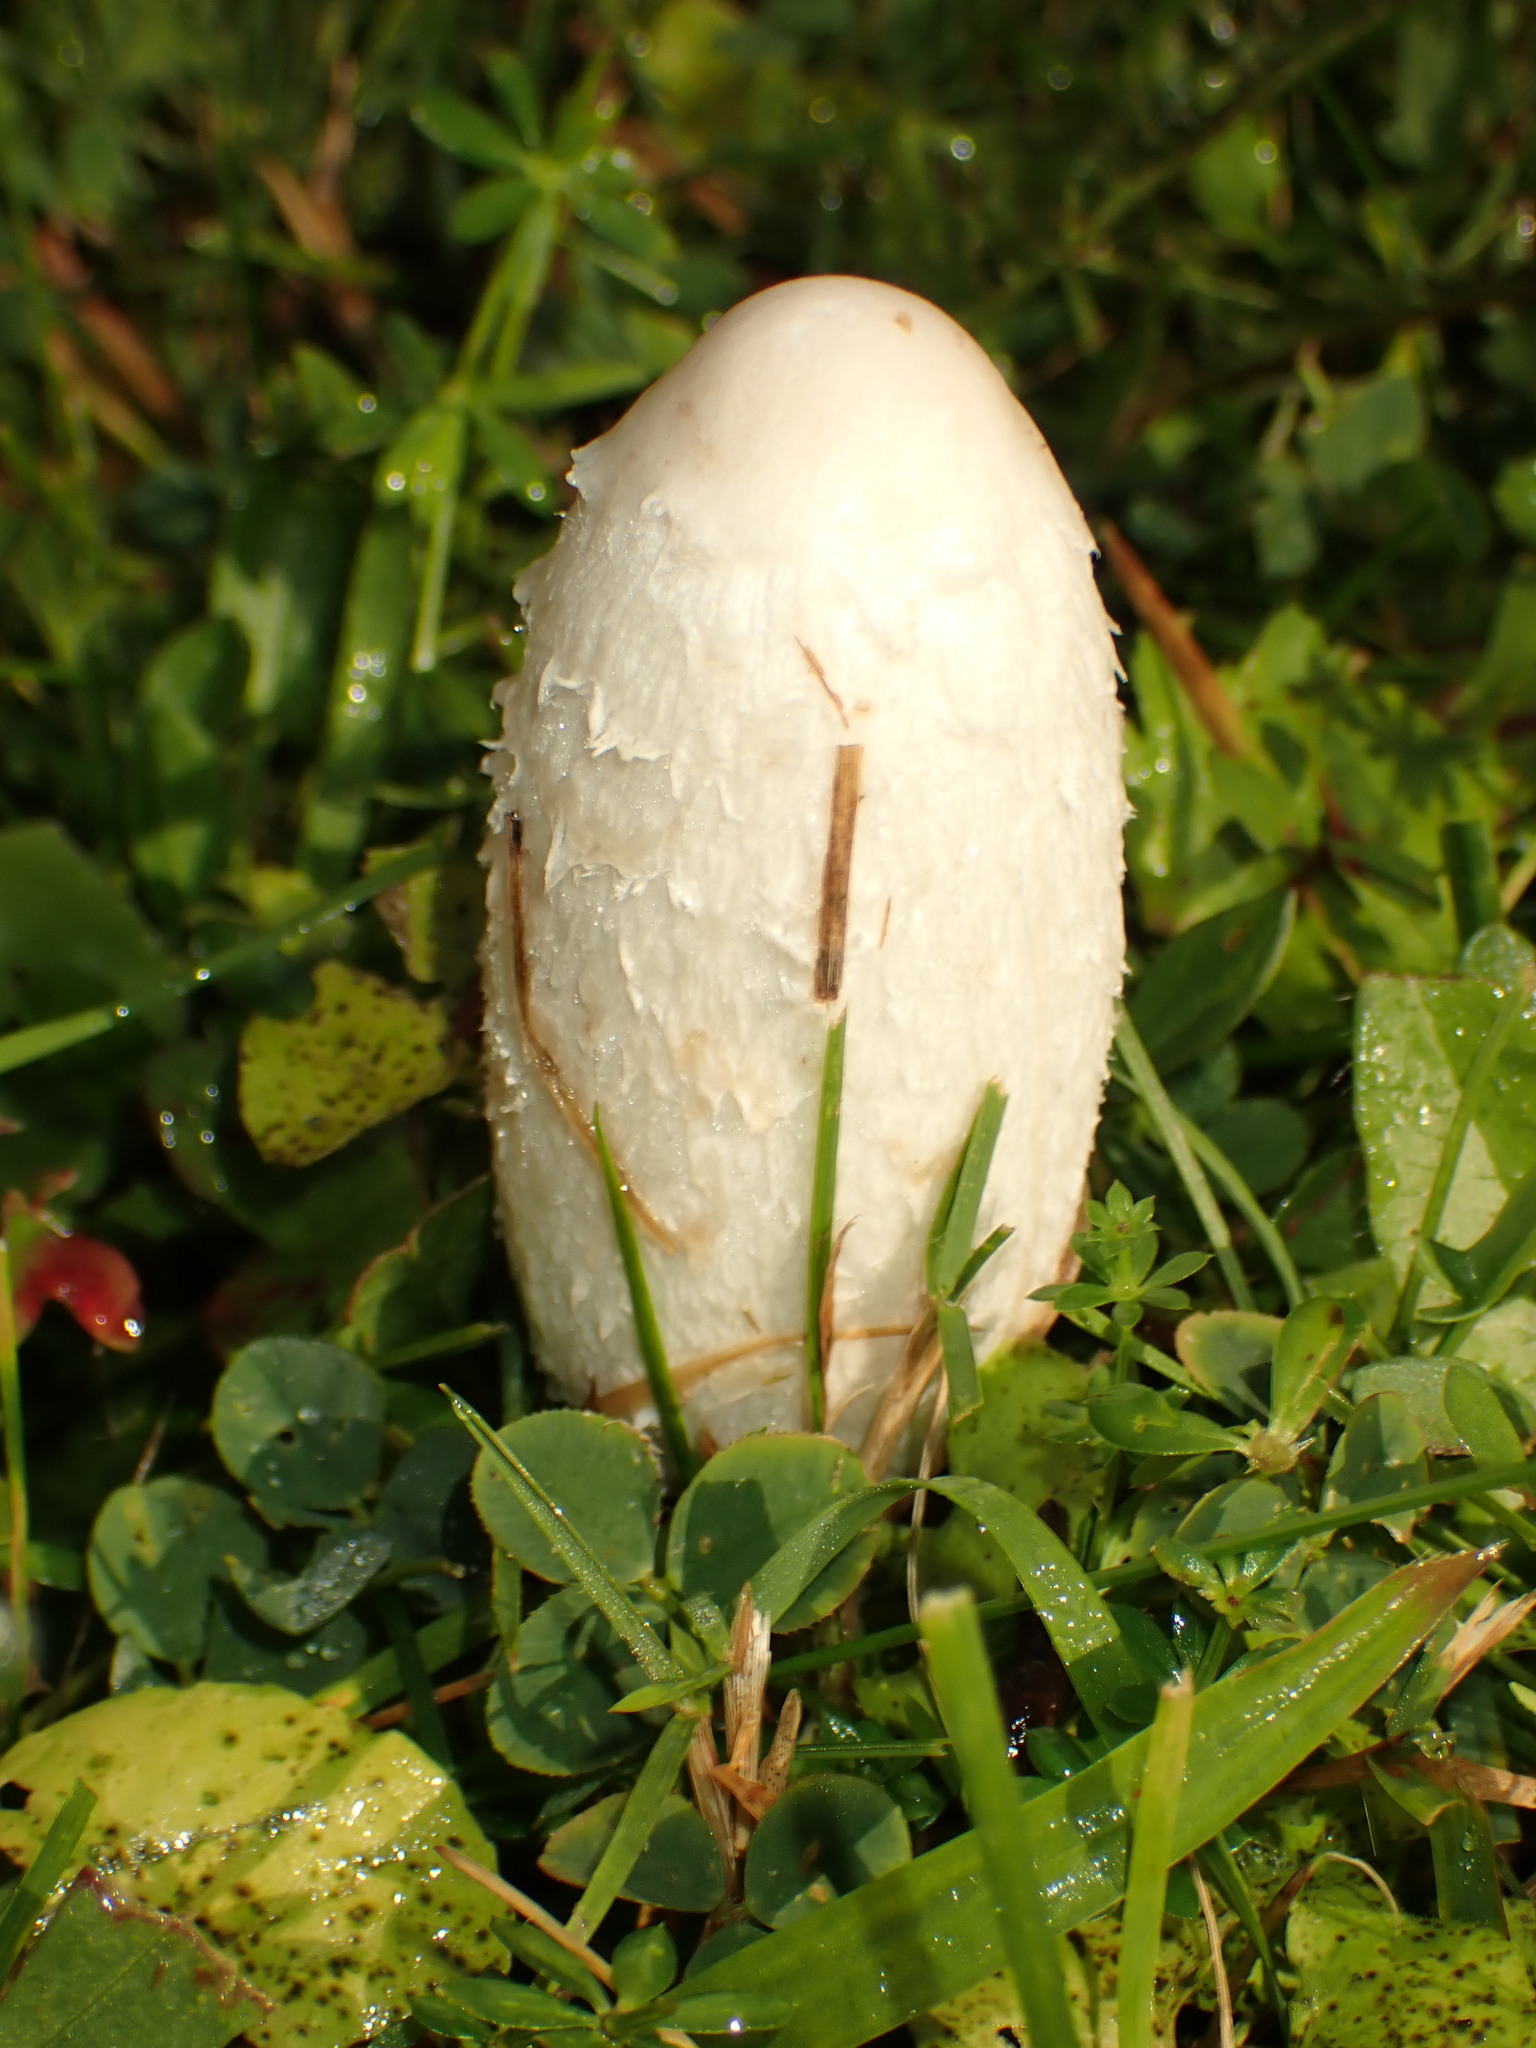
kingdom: Fungi
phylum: Basidiomycota
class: Agaricomycetes
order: Agaricales
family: Agaricaceae
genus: Coprinus
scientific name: Coprinus comatus
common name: Lawyer's wig
